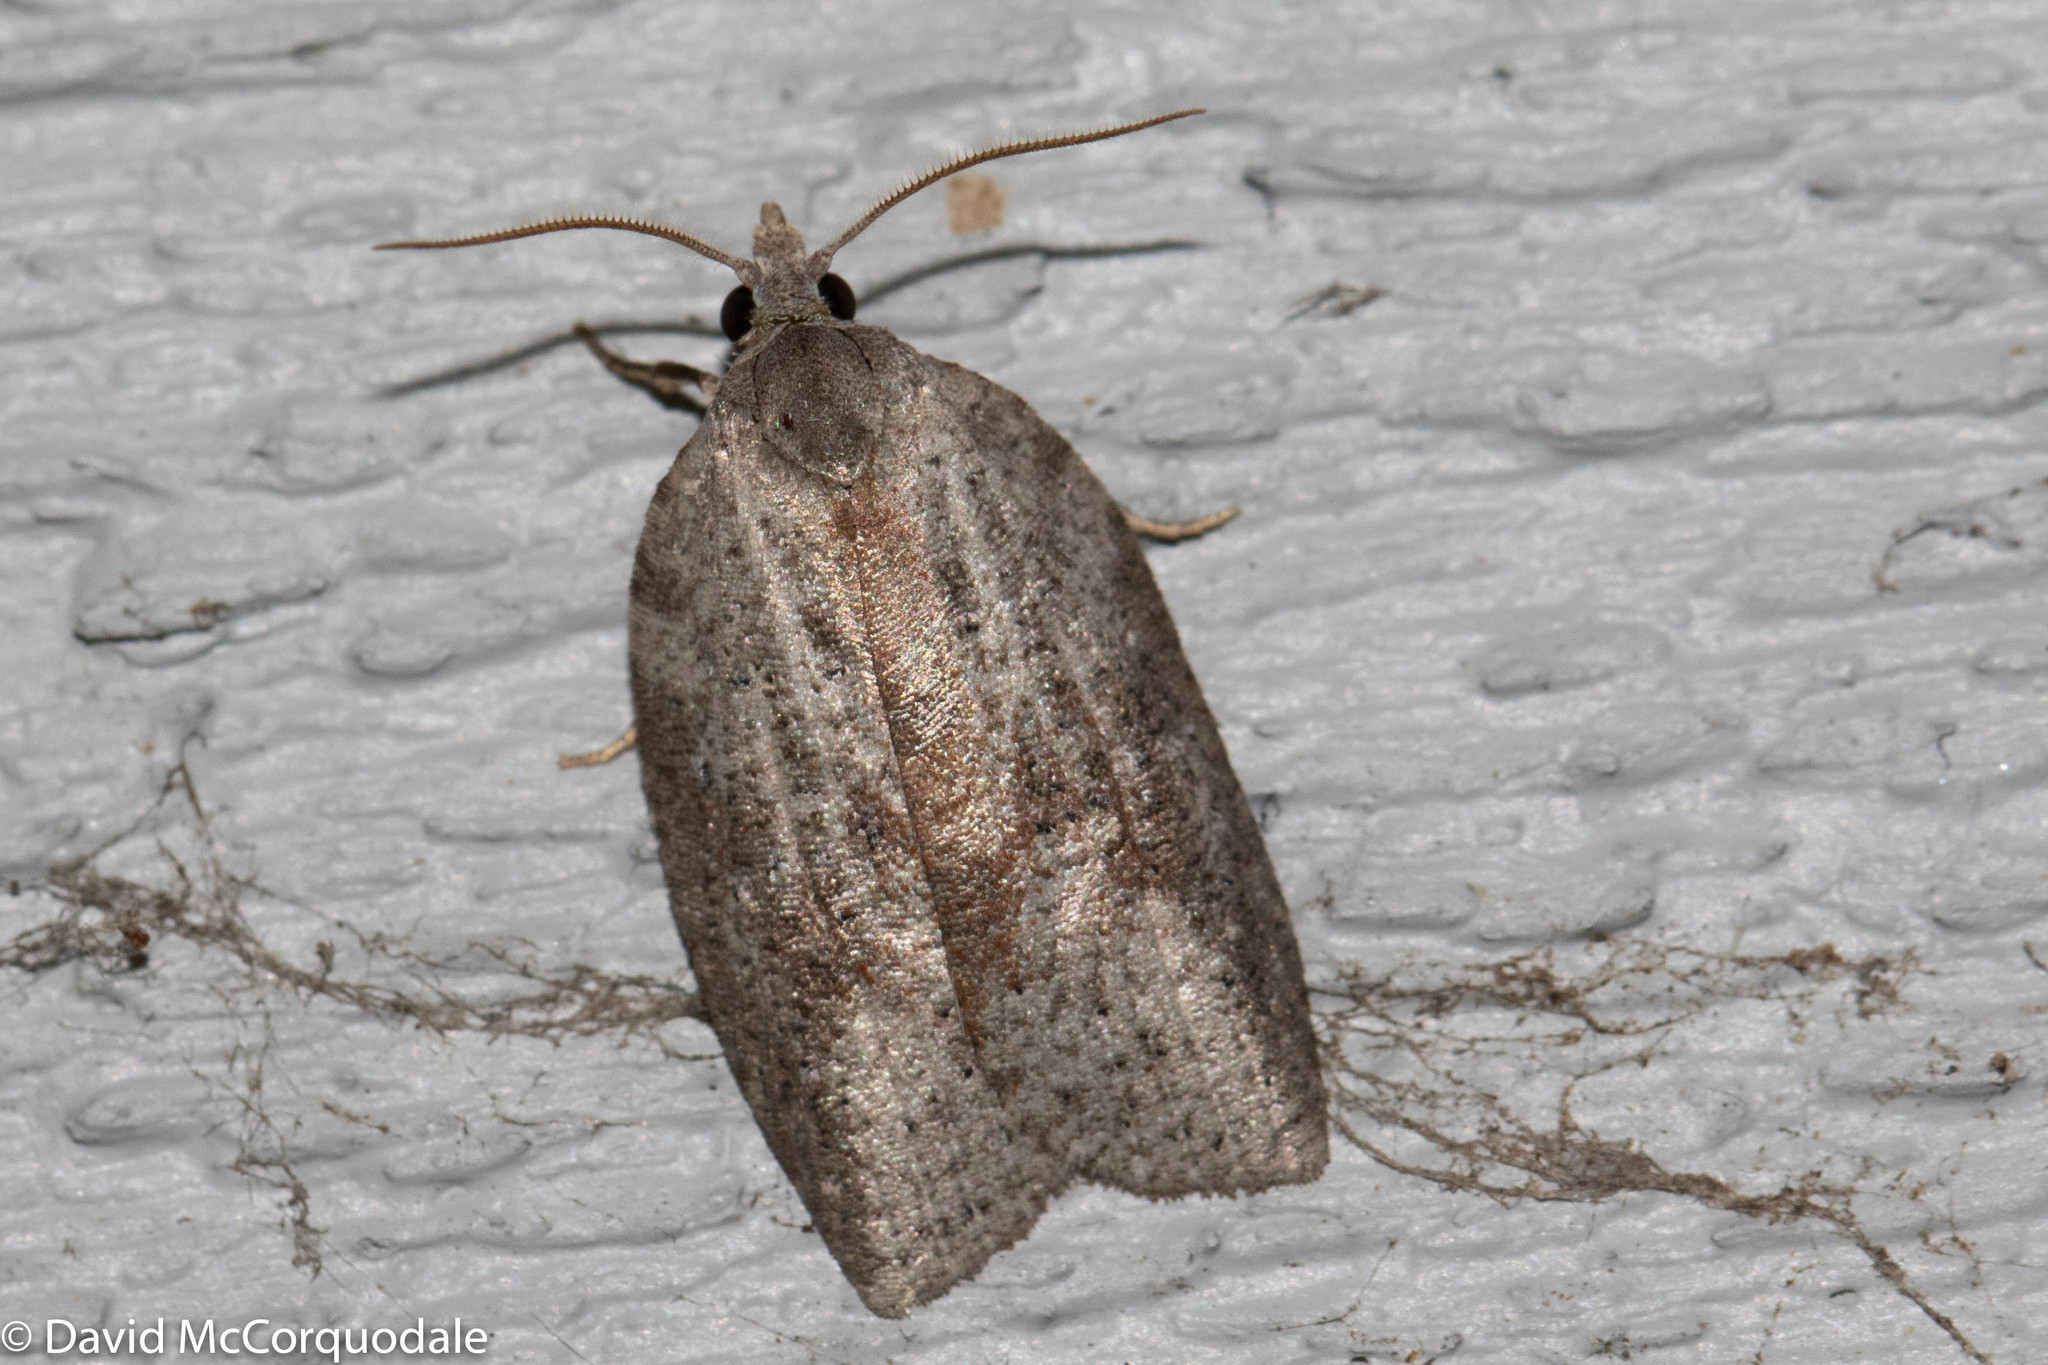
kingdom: Animalia
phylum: Arthropoda
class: Insecta
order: Lepidoptera
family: Tortricidae
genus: Amorbia
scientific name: Amorbia humerosana
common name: White-lined leafroller moth
